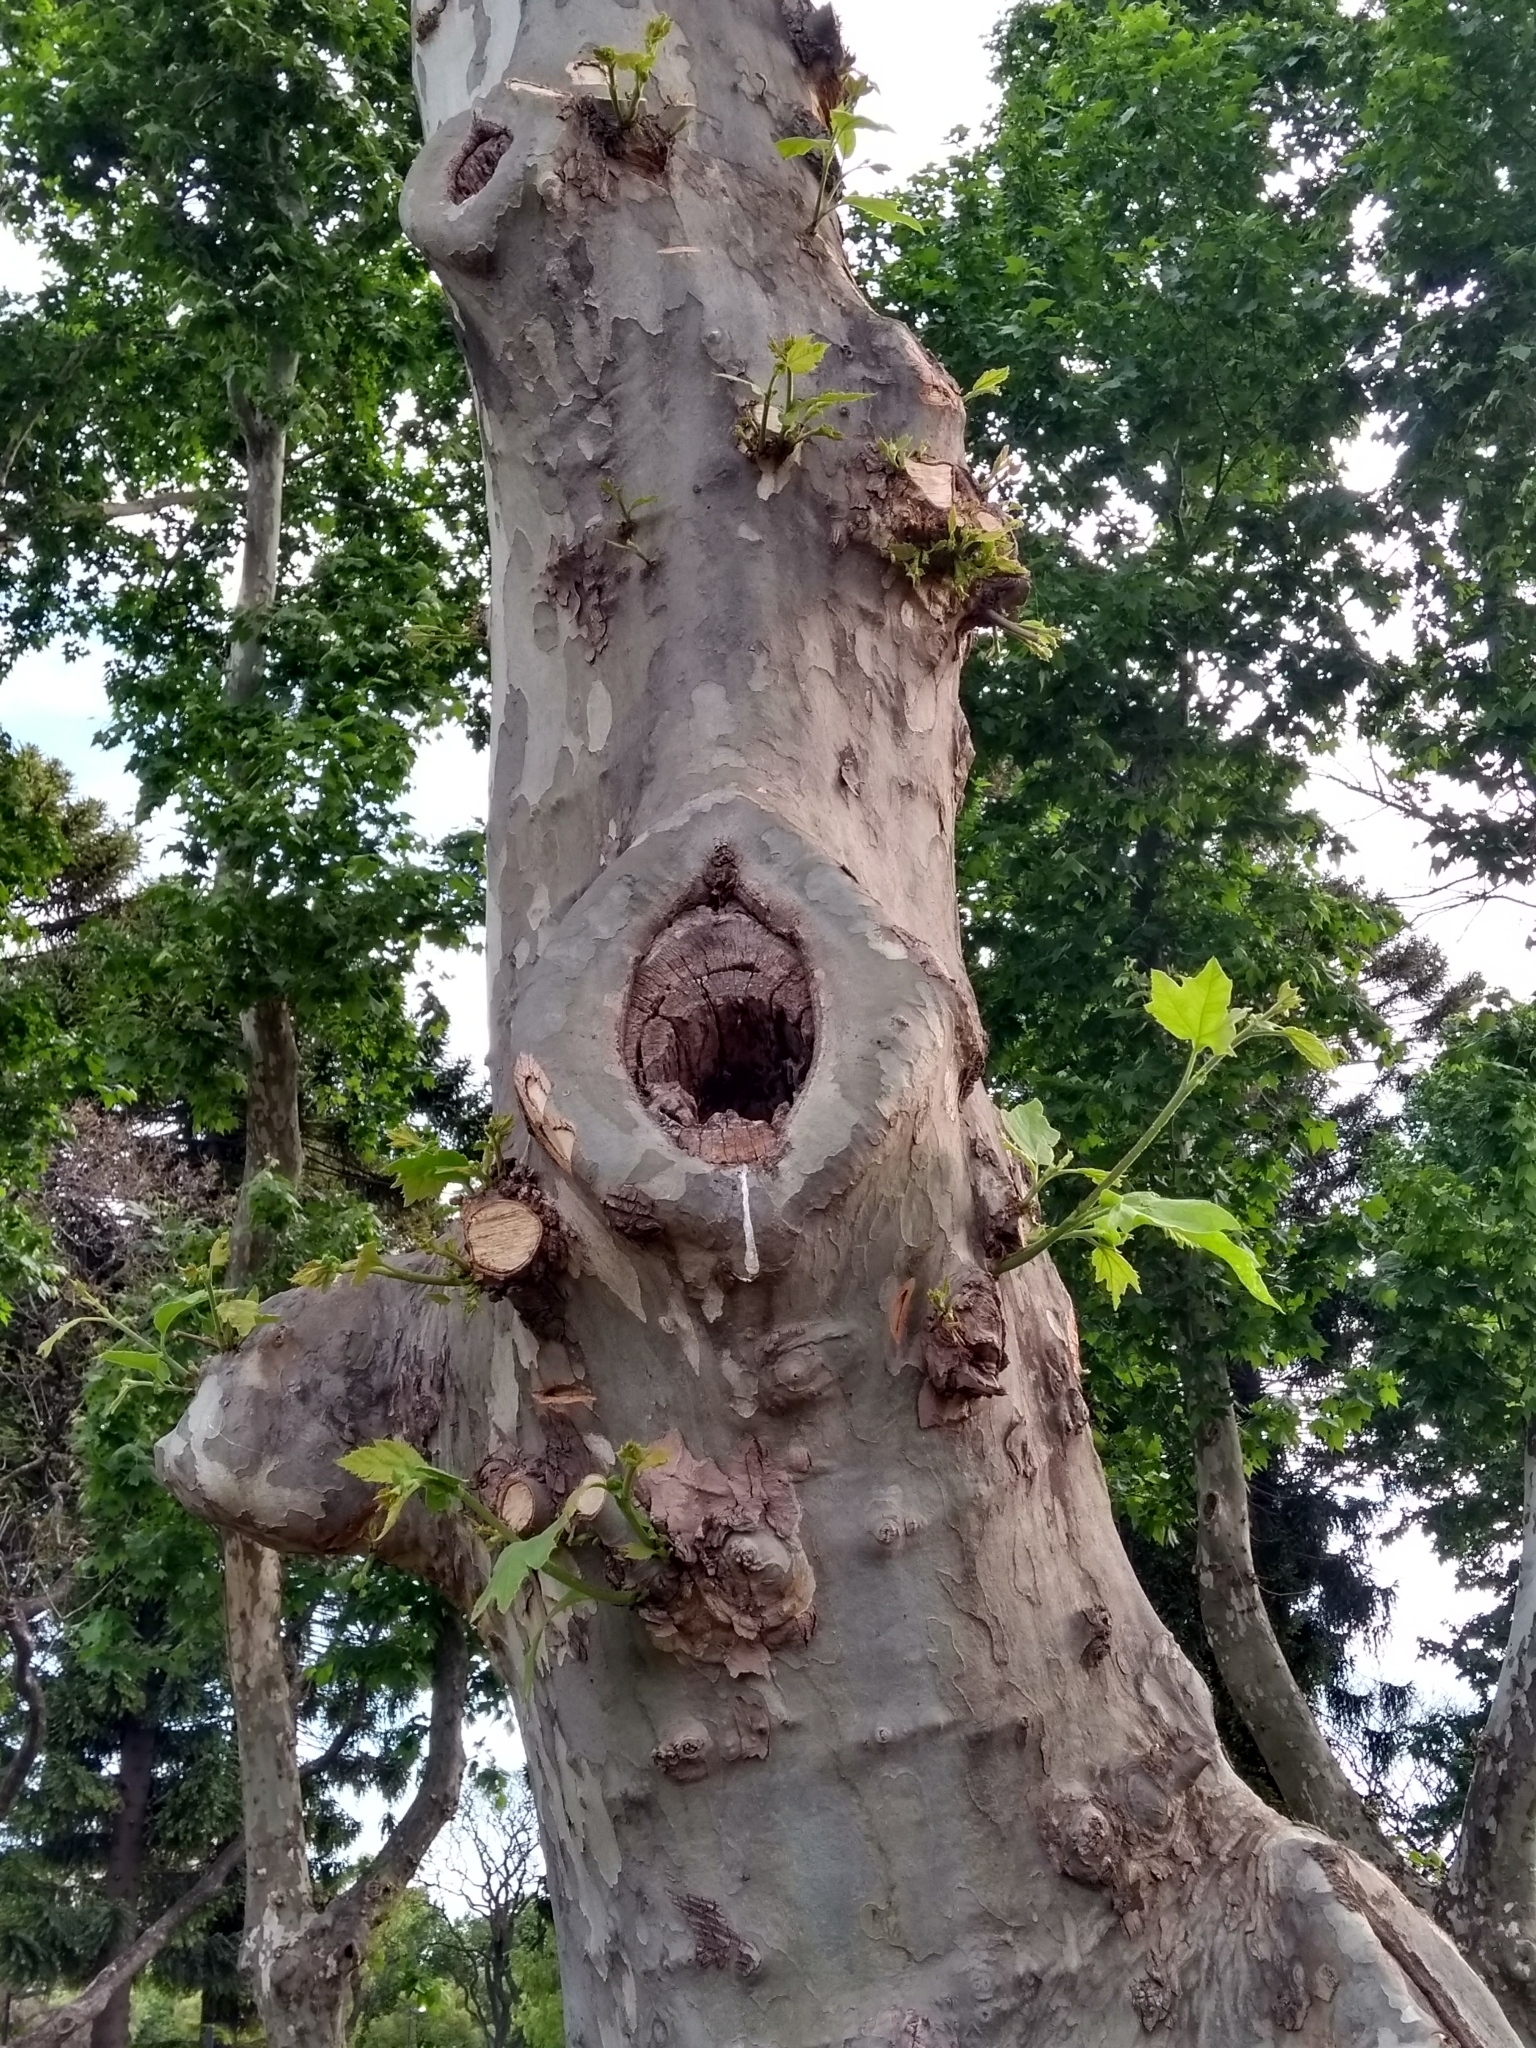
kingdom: Animalia
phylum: Chordata
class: Aves
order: Psittaciformes
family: Psittacidae
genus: Nandayus
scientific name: Nandayus nenday
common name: Nanday parakeet
